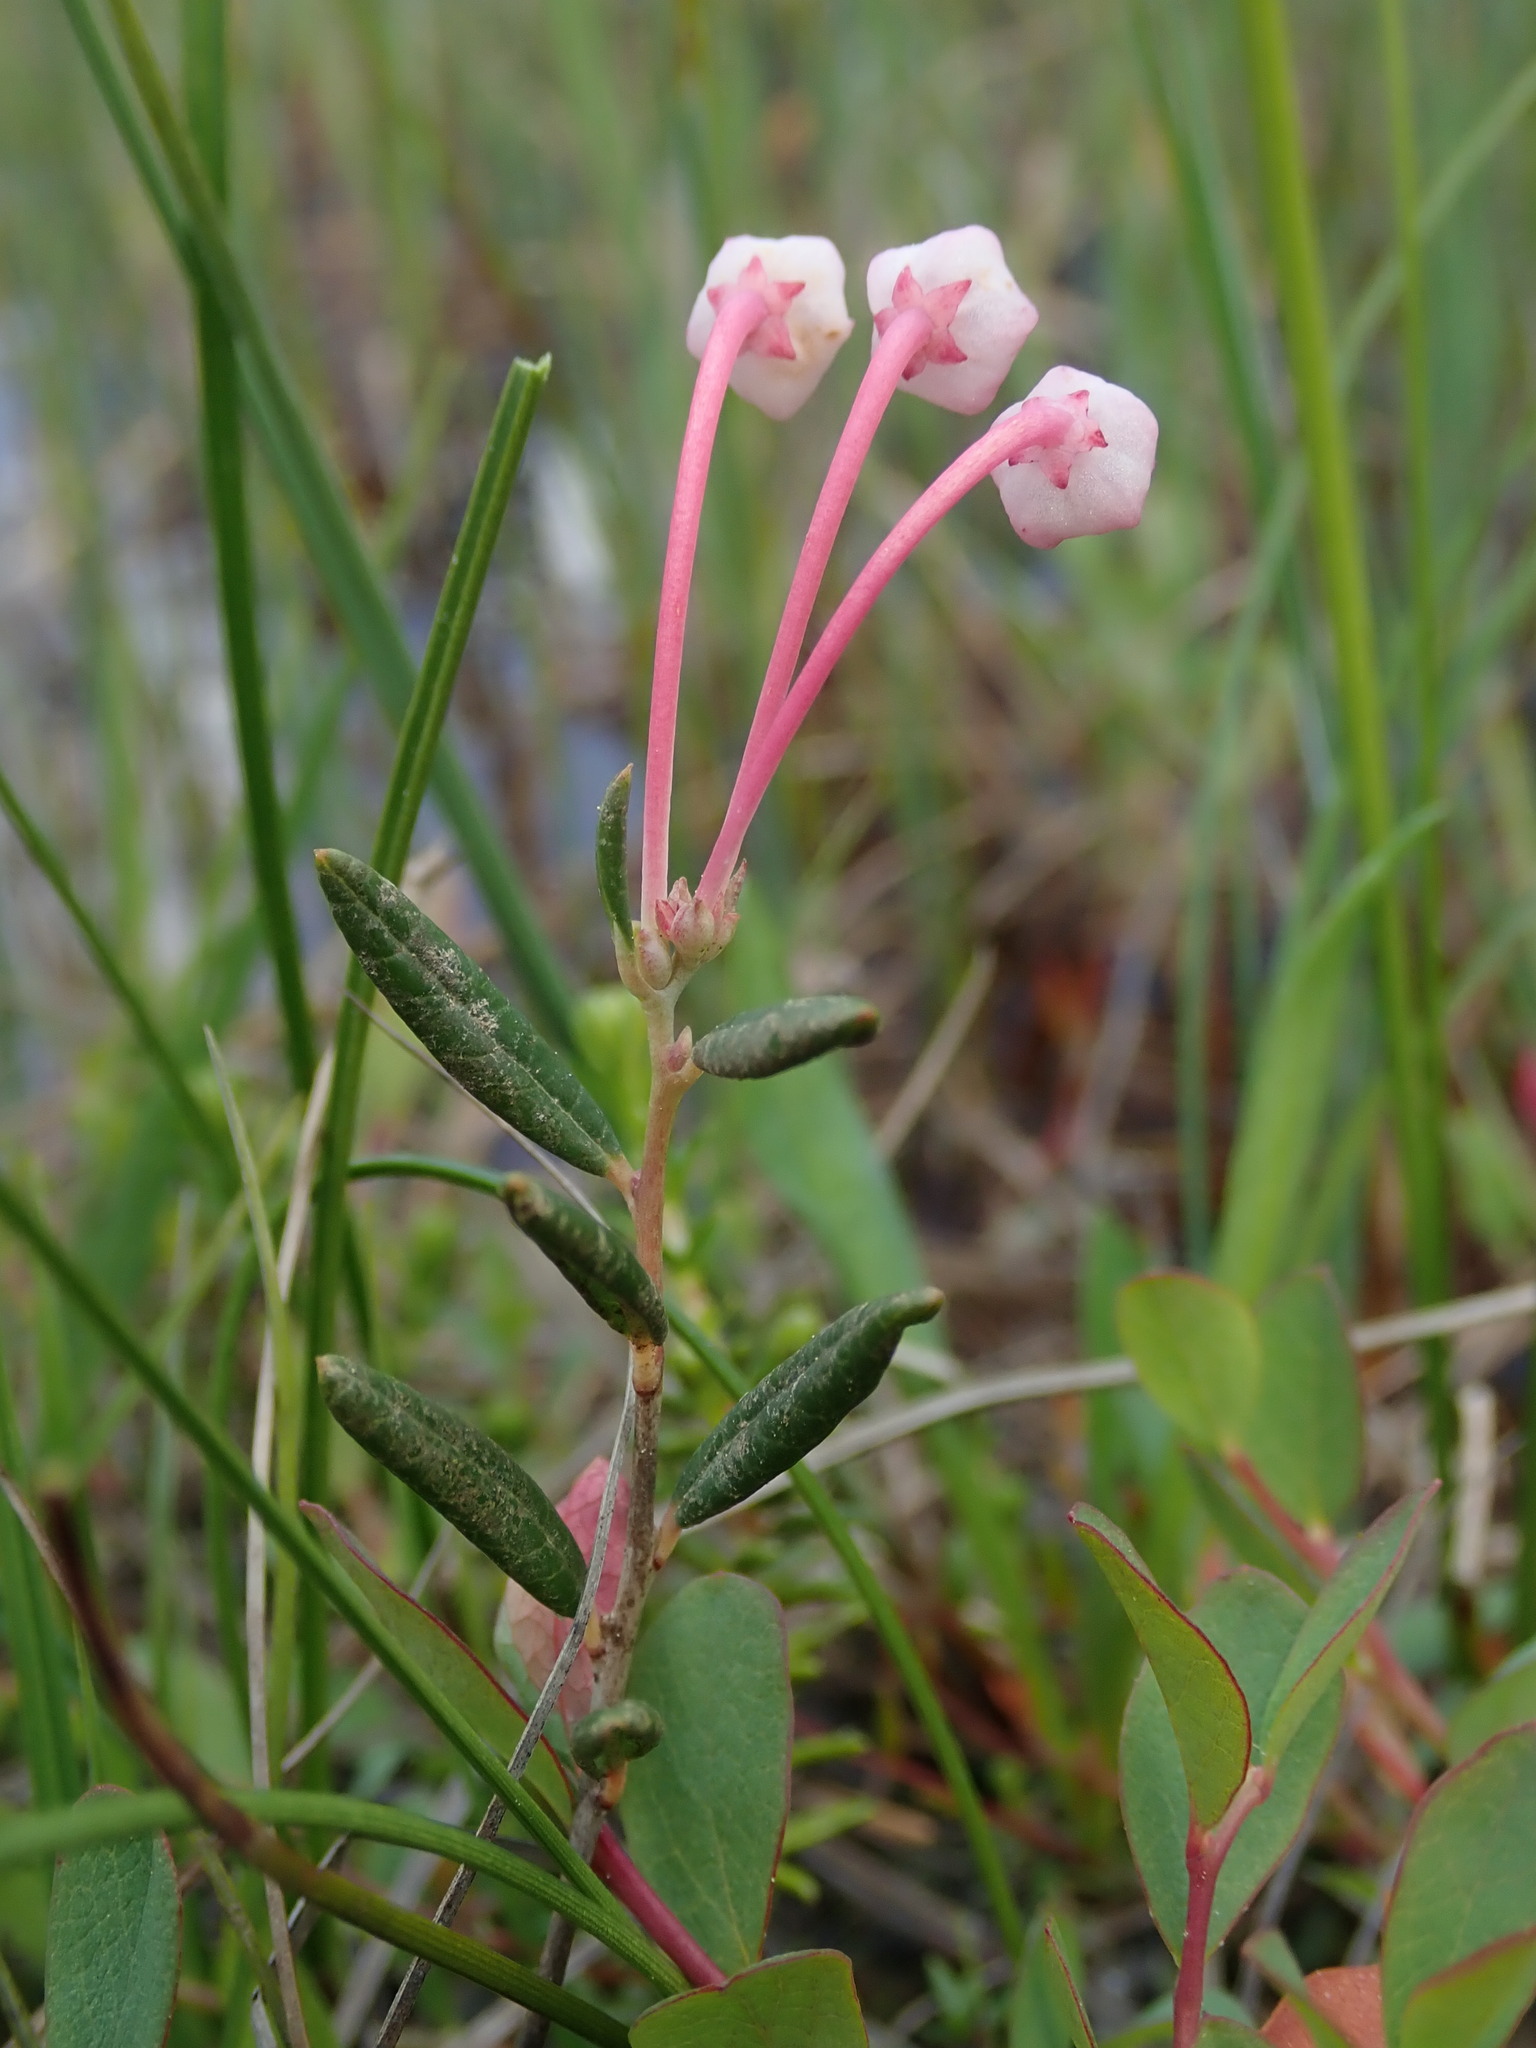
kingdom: Plantae
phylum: Tracheophyta
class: Magnoliopsida
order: Ericales
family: Ericaceae
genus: Andromeda
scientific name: Andromeda polifolia
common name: Bog-rosemary
